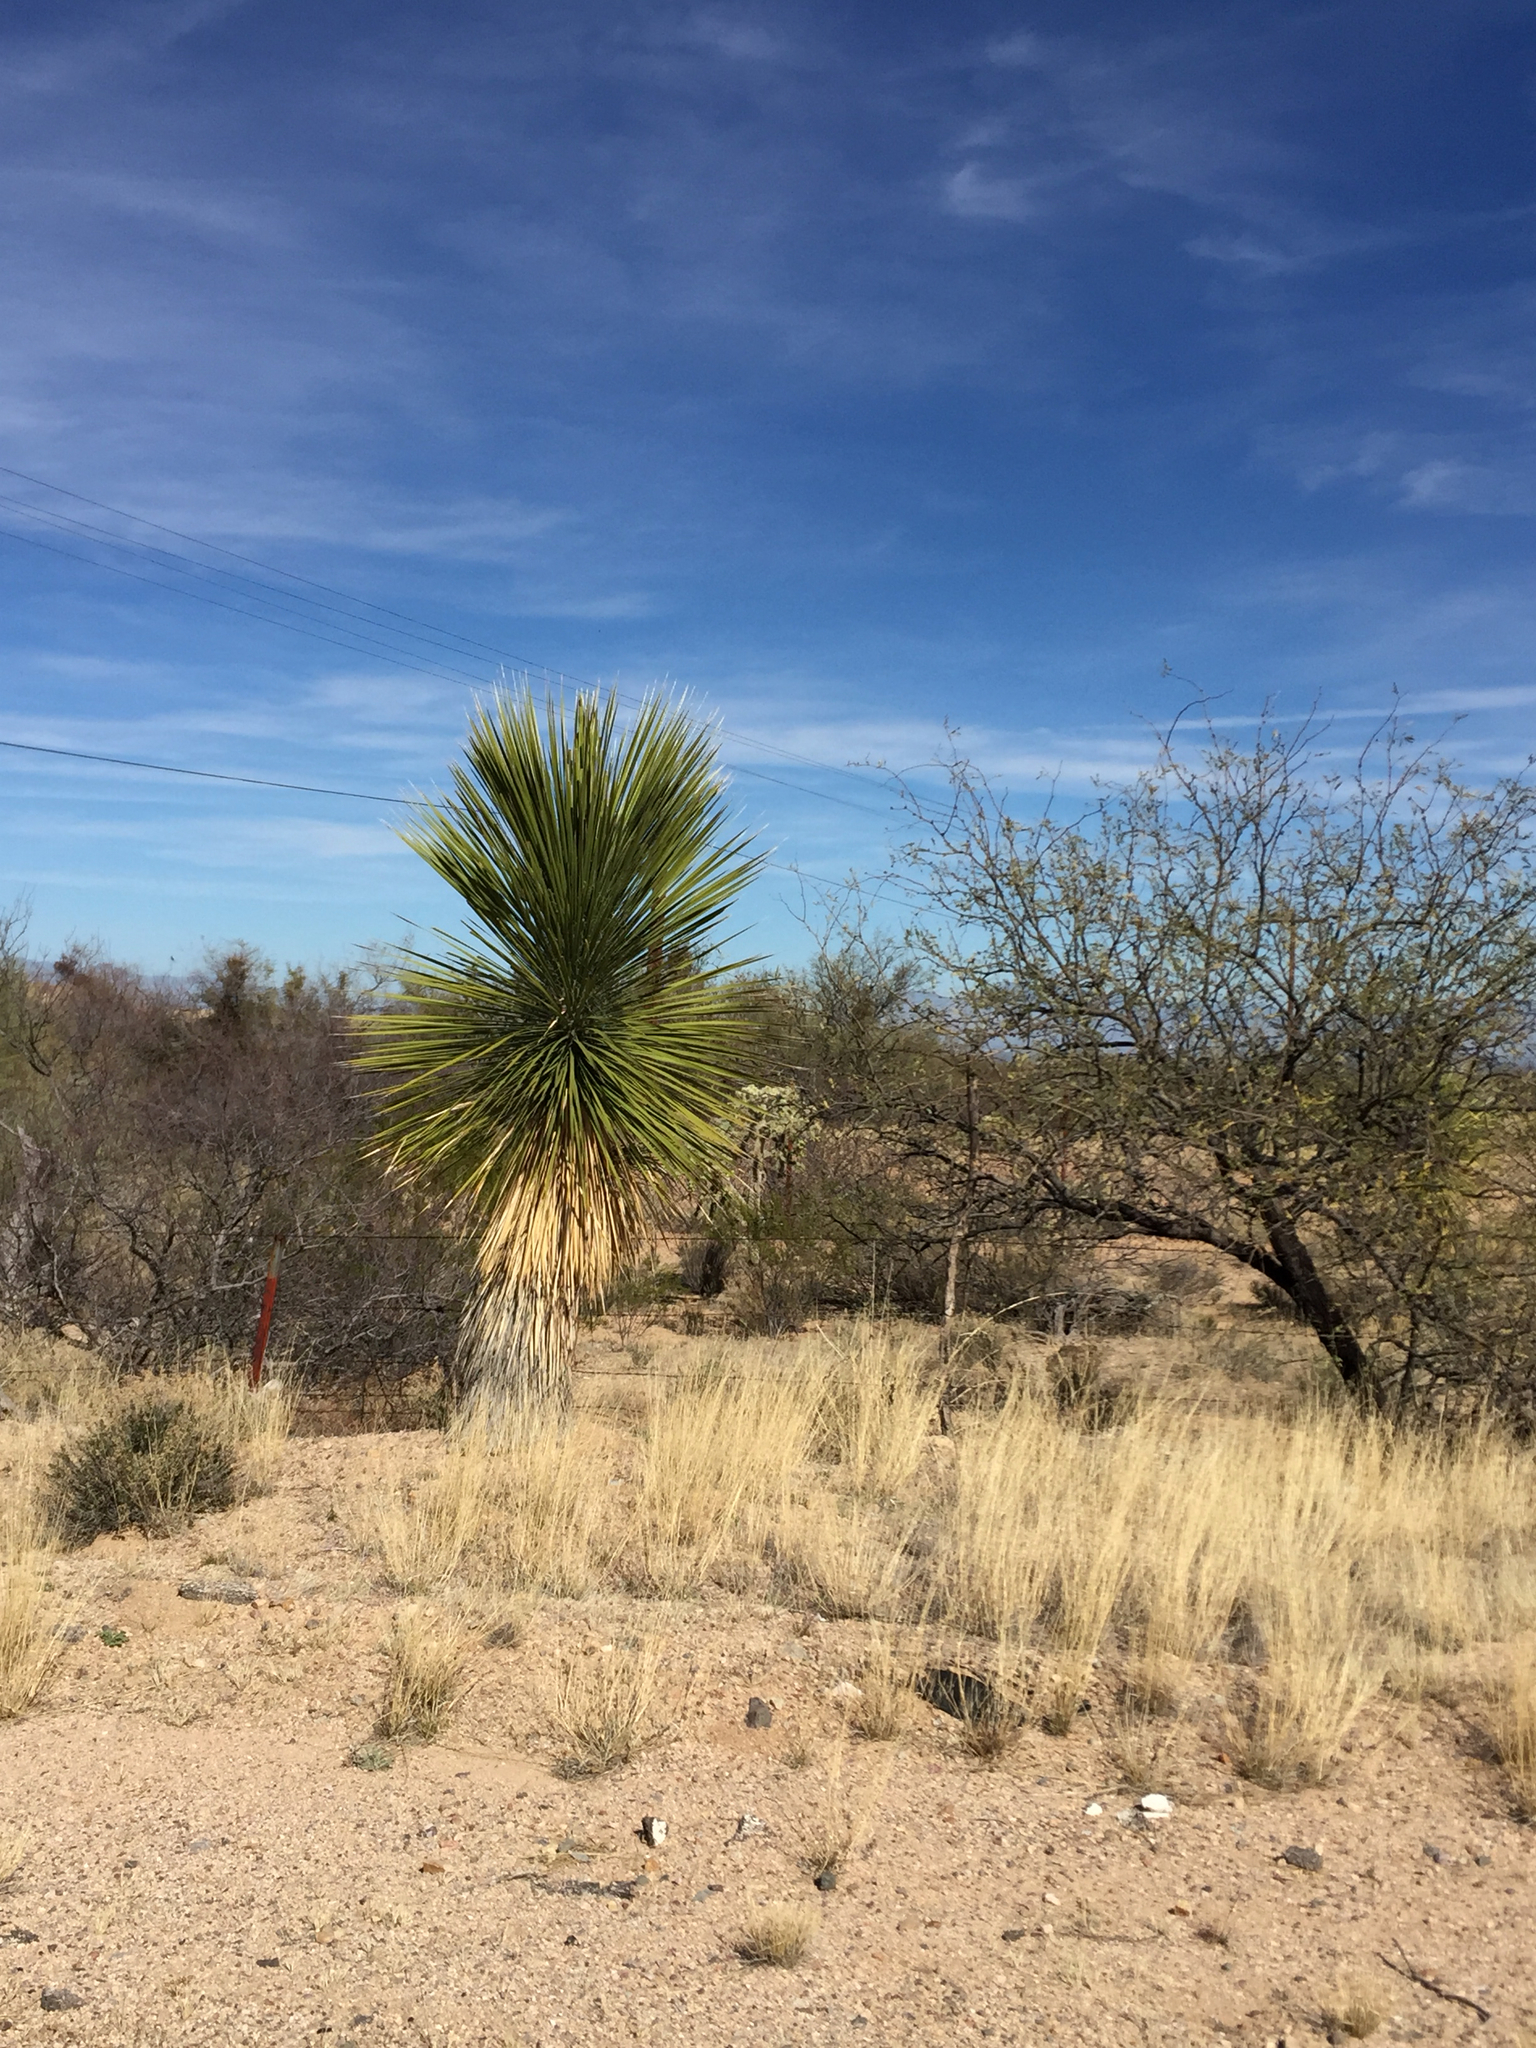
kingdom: Plantae
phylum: Tracheophyta
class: Liliopsida
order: Asparagales
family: Asparagaceae
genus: Yucca
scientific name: Yucca elata
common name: Palmella
